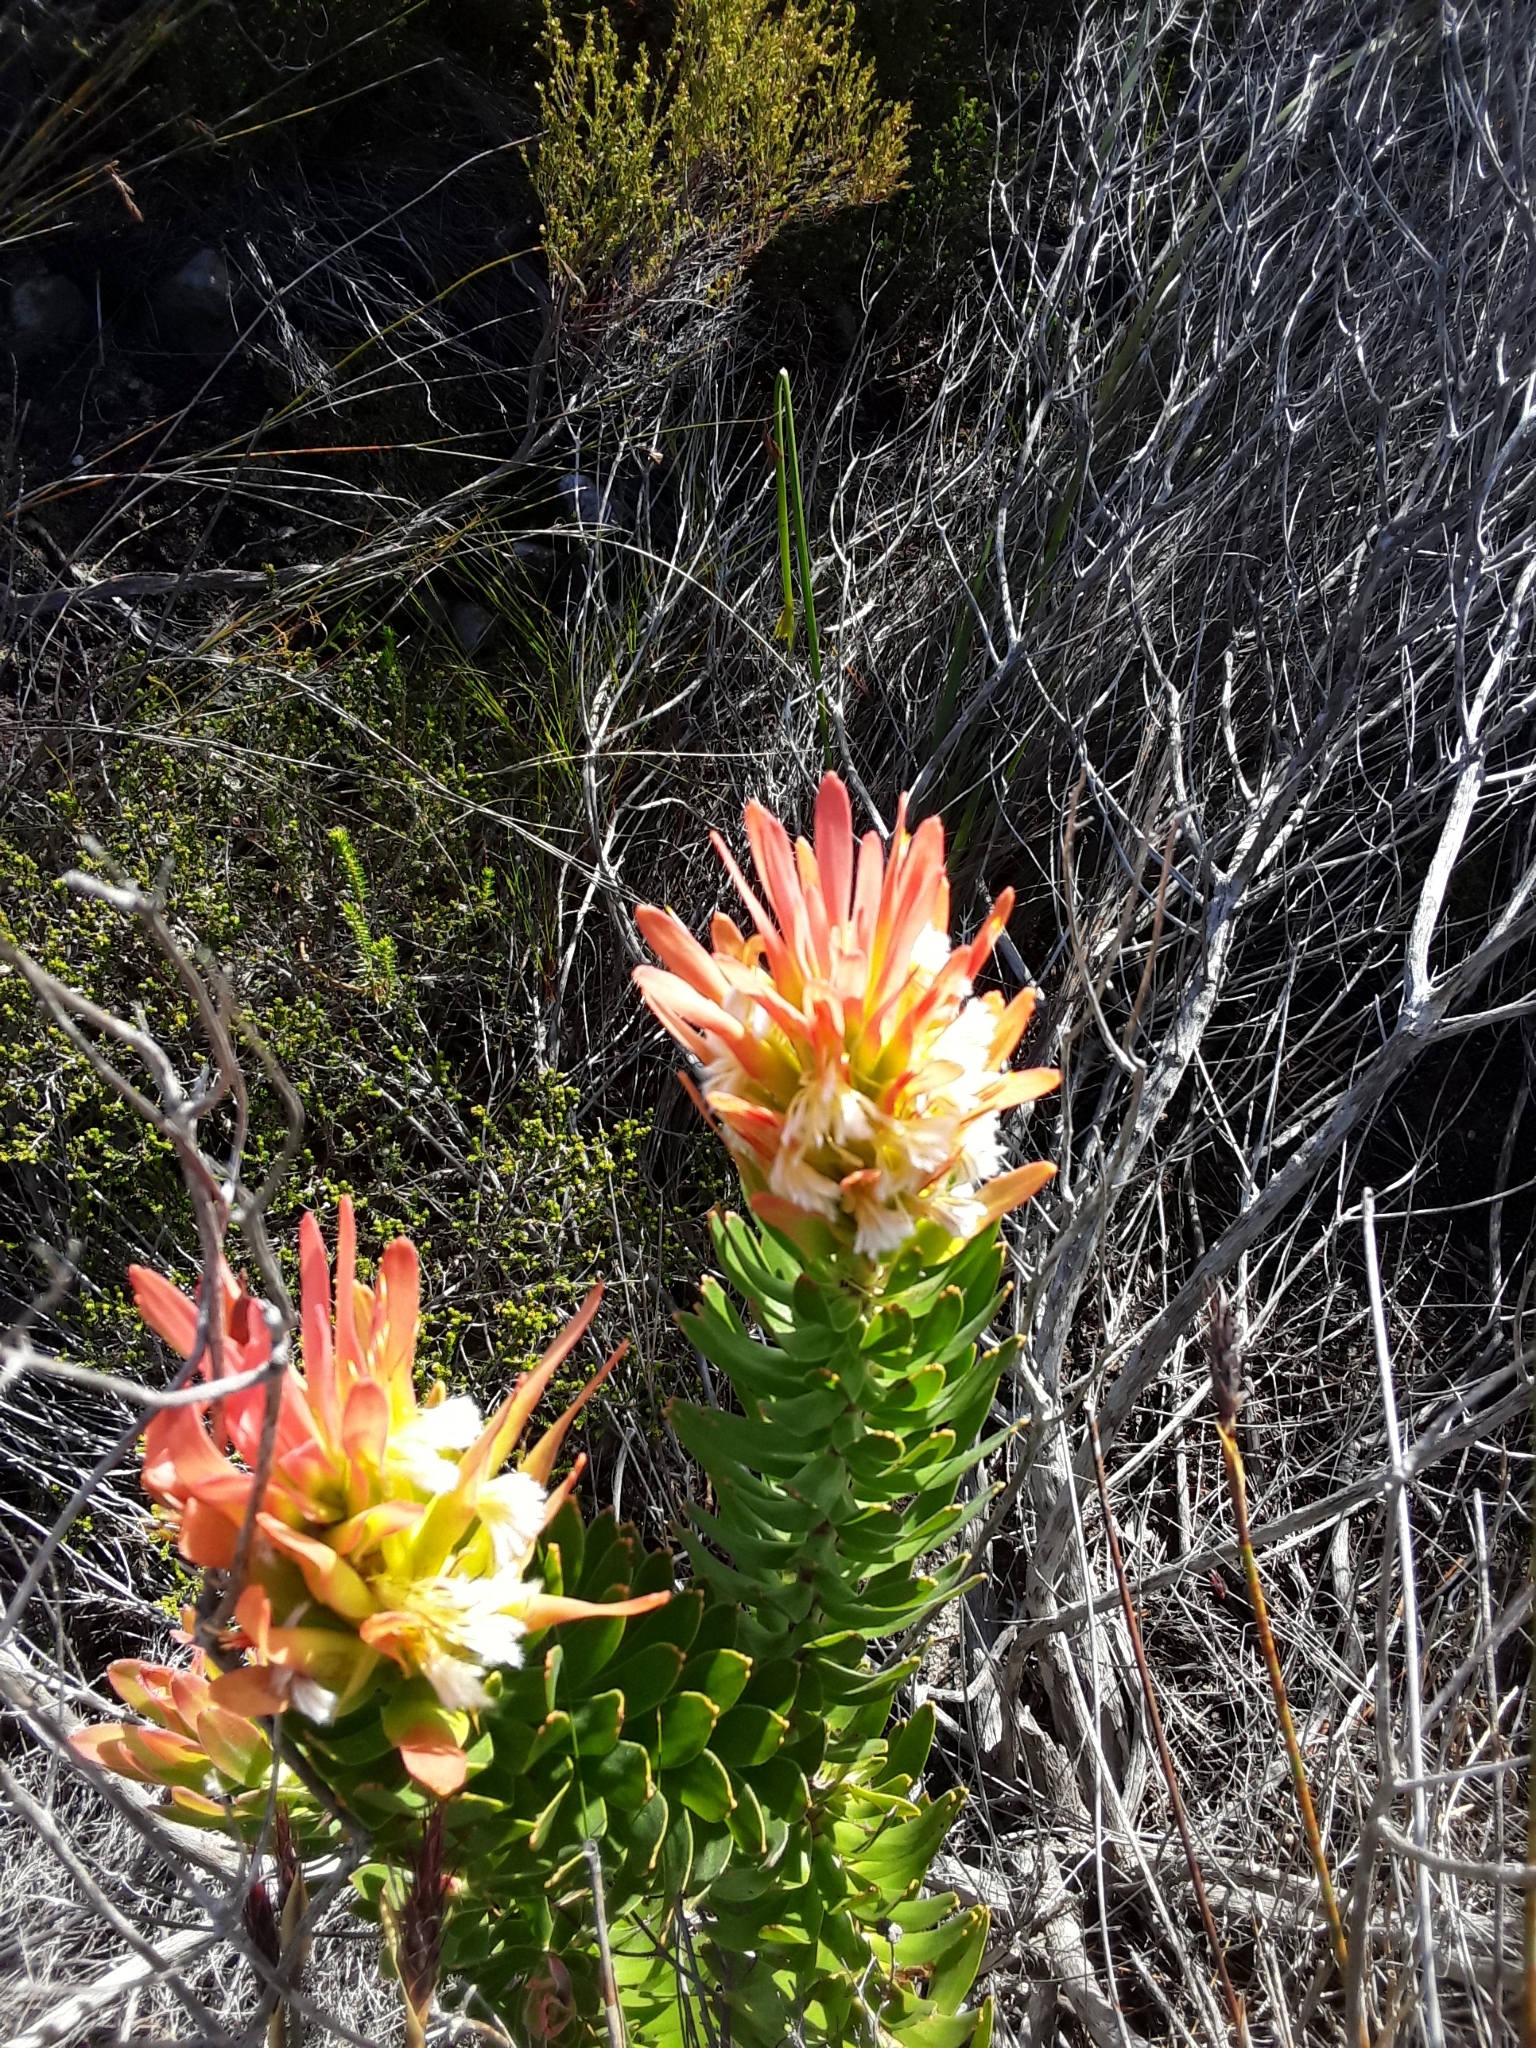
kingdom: Plantae
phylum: Tracheophyta
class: Magnoliopsida
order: Proteales
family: Proteaceae
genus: Mimetes
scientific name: Mimetes cucullatus
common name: Common pagoda
